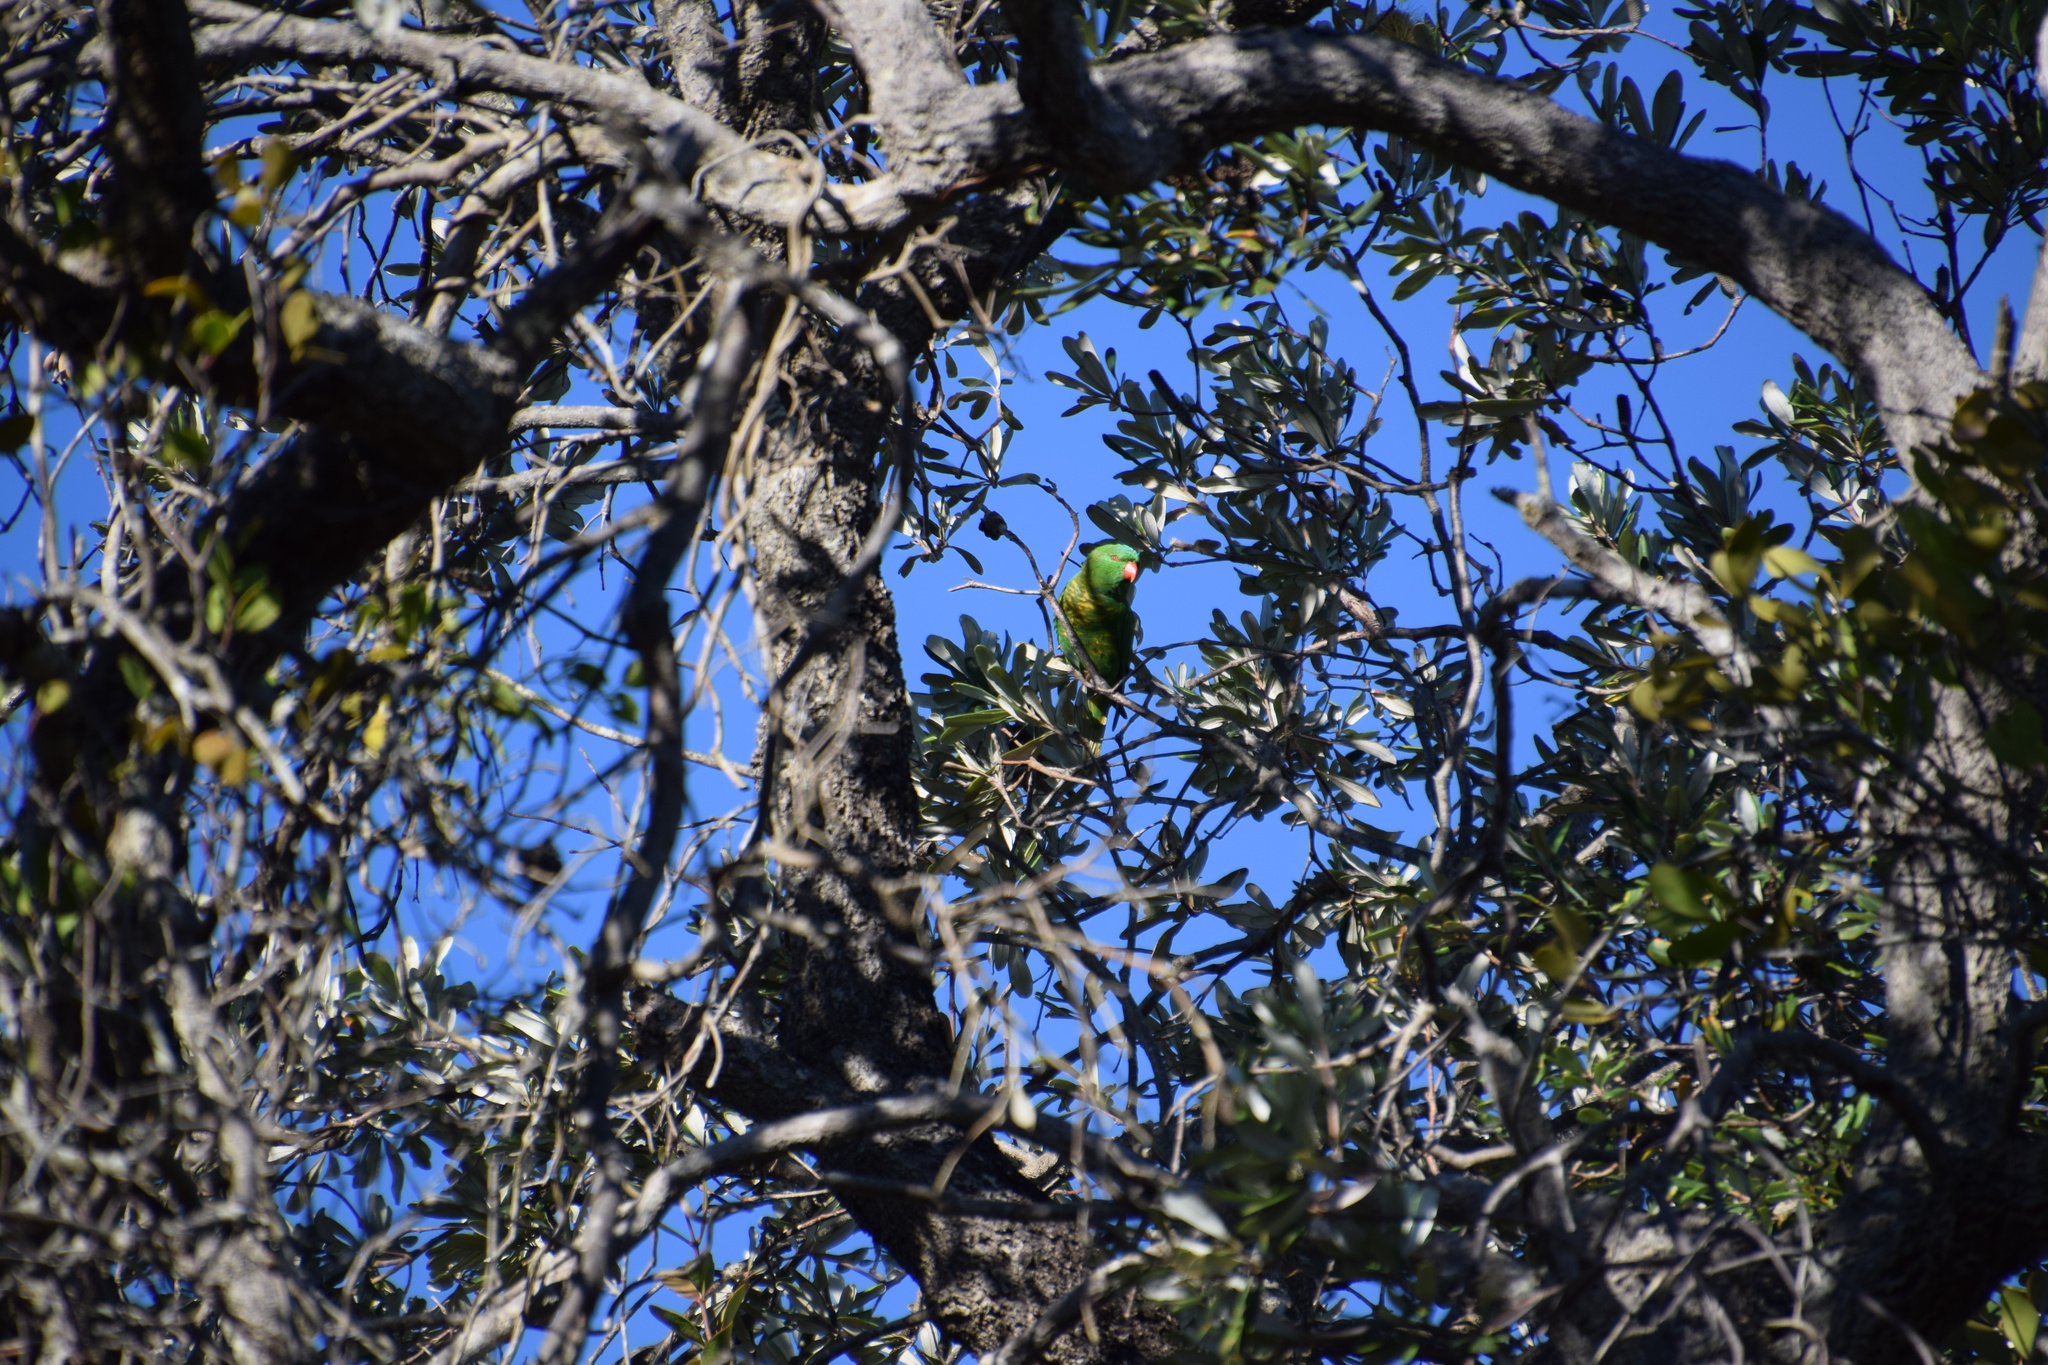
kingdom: Animalia
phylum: Chordata
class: Aves
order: Psittaciformes
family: Psittacidae
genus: Trichoglossus
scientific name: Trichoglossus chlorolepidotus
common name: Scaly-breasted lorikeet
